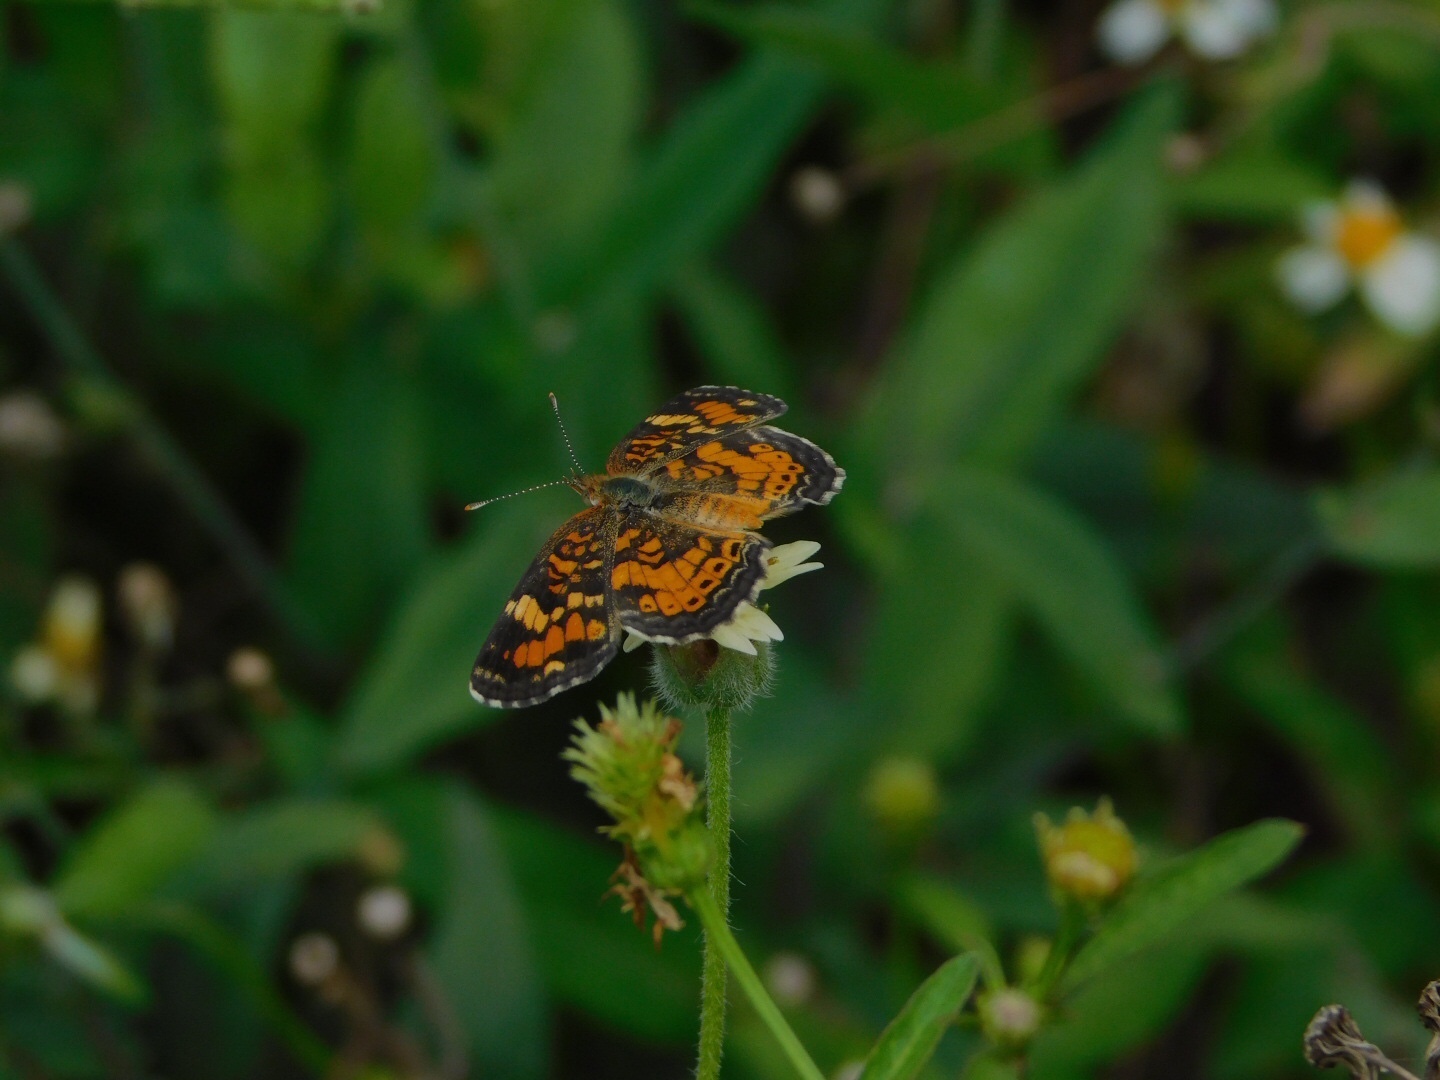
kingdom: Animalia
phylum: Arthropoda
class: Insecta
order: Lepidoptera
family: Nymphalidae
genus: Phyciodes
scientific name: Phyciodes phaon
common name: Phaon crescent
